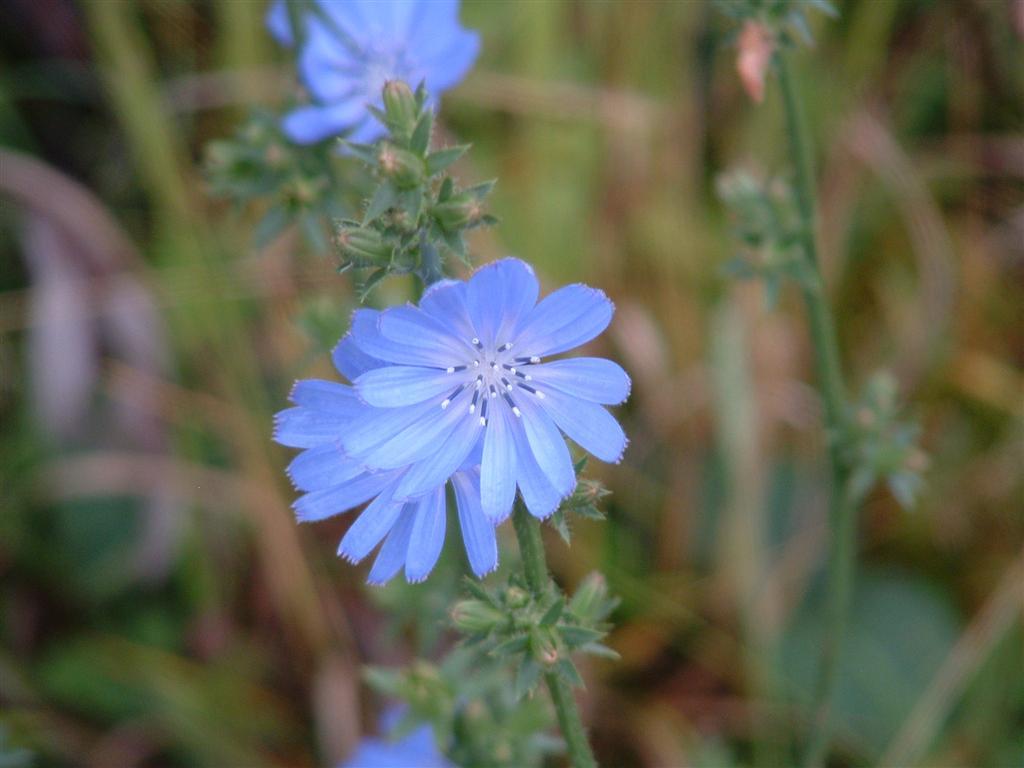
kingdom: Plantae
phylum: Tracheophyta
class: Magnoliopsida
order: Asterales
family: Asteraceae
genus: Cichorium
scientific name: Cichorium intybus
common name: Chicory
